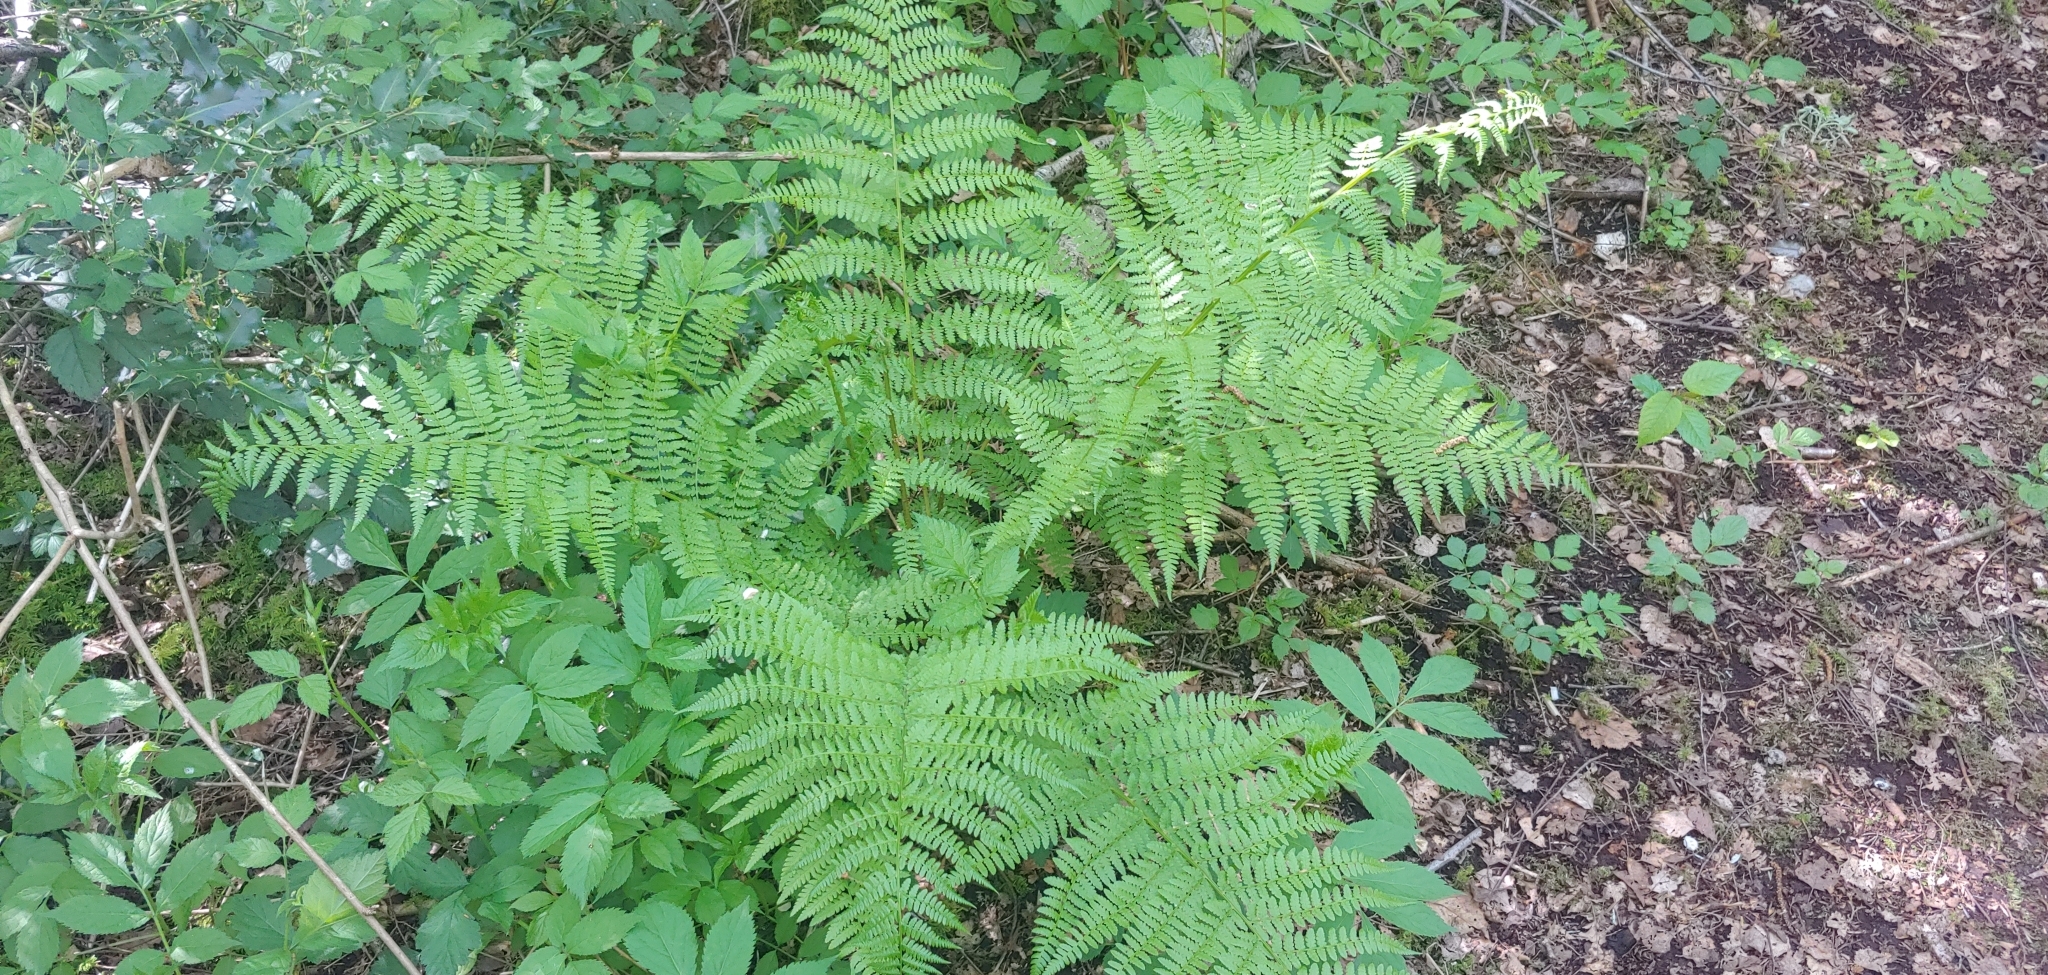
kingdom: Plantae
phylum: Tracheophyta
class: Polypodiopsida
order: Polypodiales
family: Athyriaceae
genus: Athyrium
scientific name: Athyrium filix-femina
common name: Lady fern
